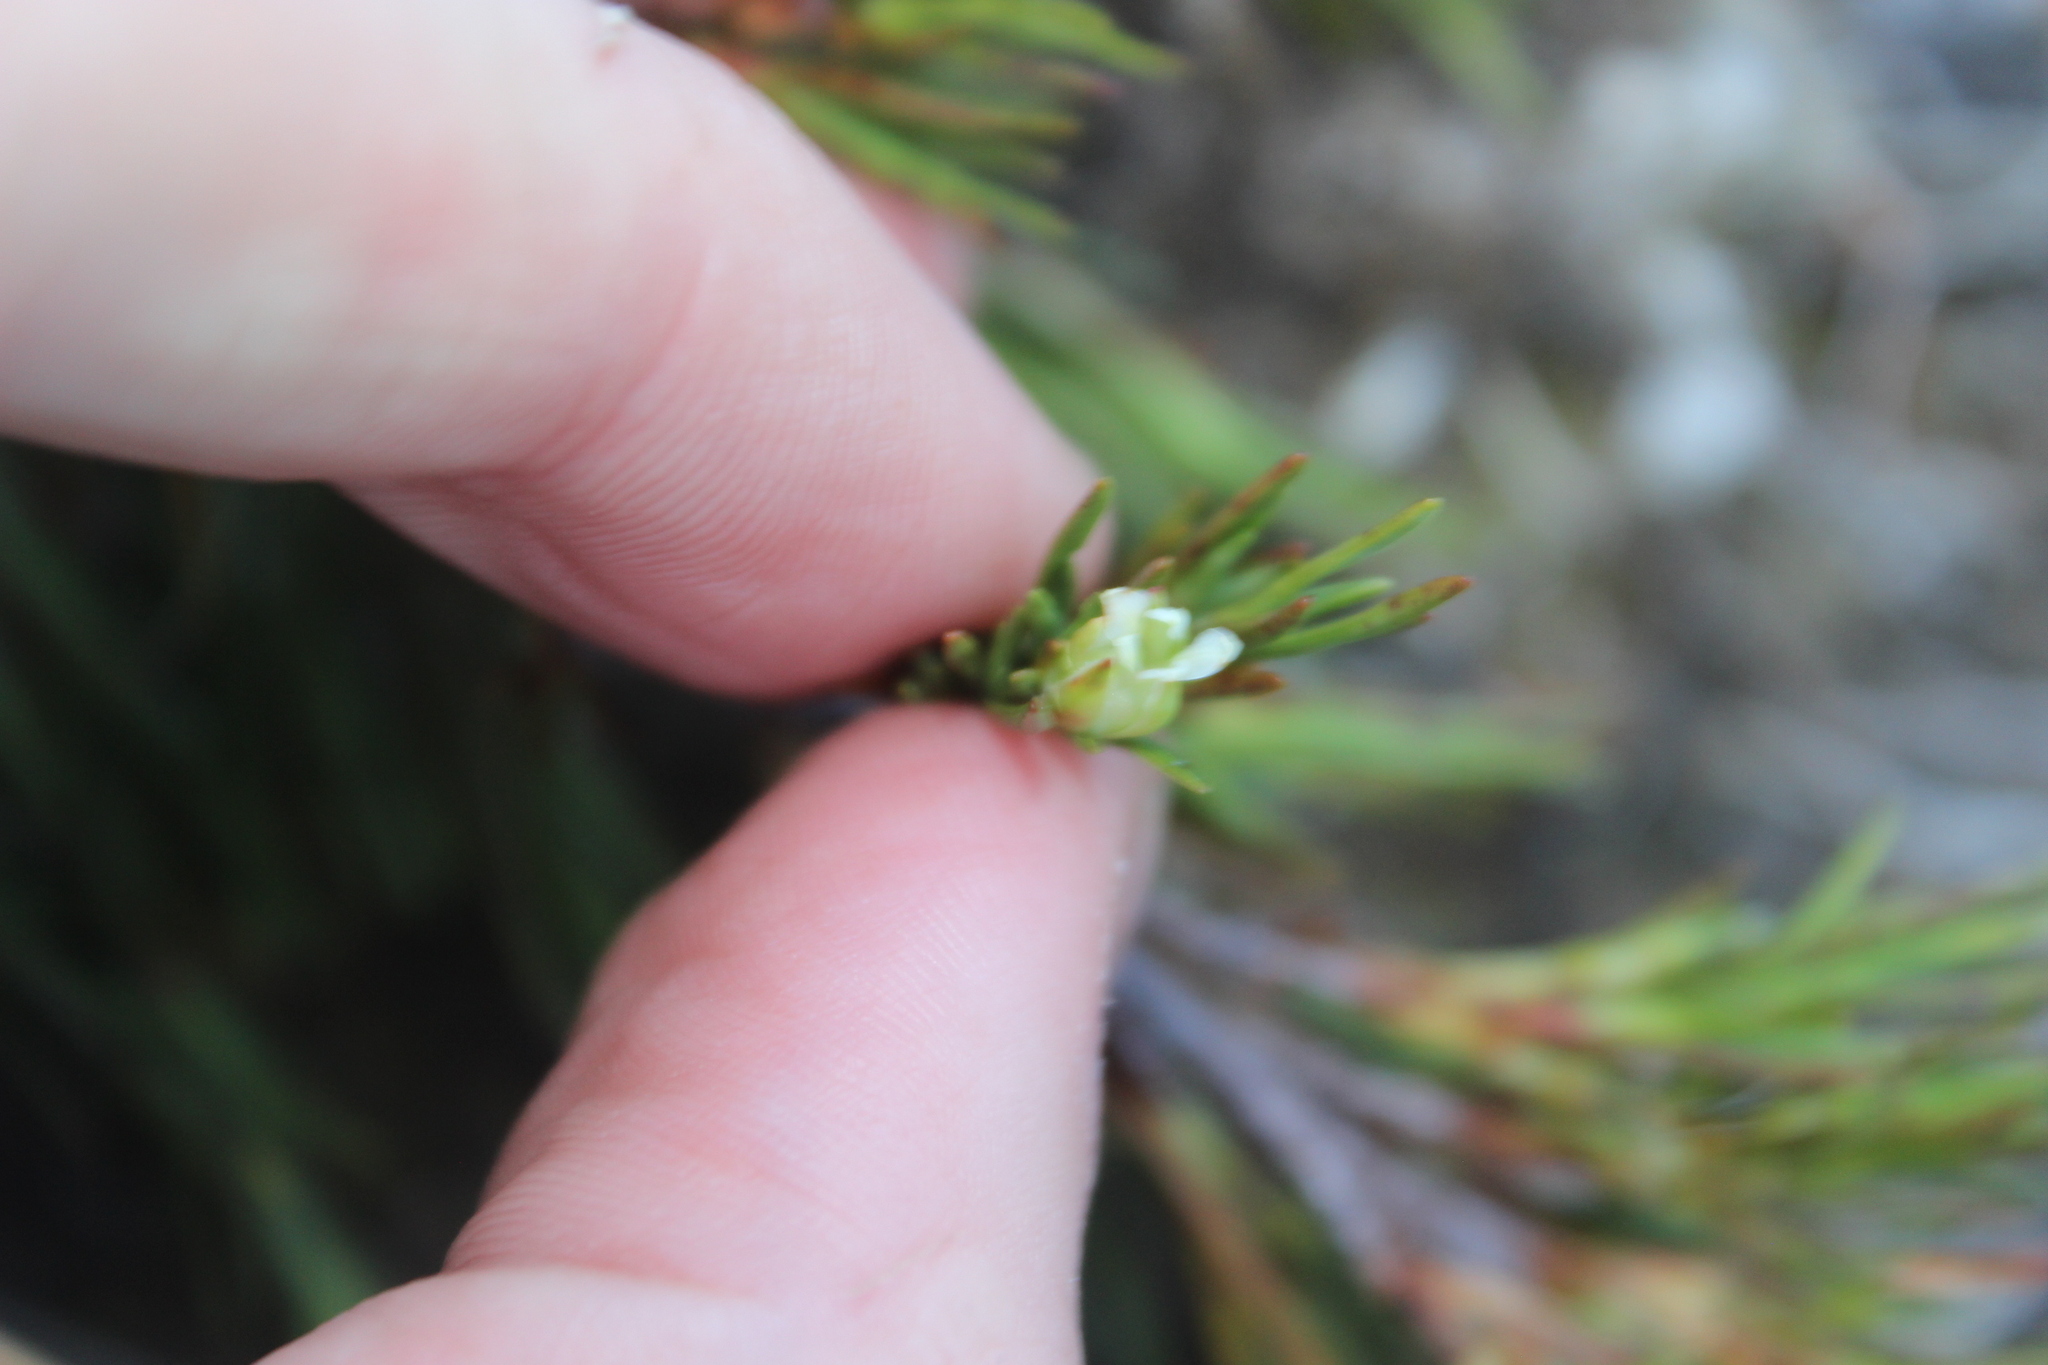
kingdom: Plantae
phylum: Tracheophyta
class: Magnoliopsida
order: Ericales
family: Ericaceae
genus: Dracophyllum
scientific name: Dracophyllum rosmarinifolium
